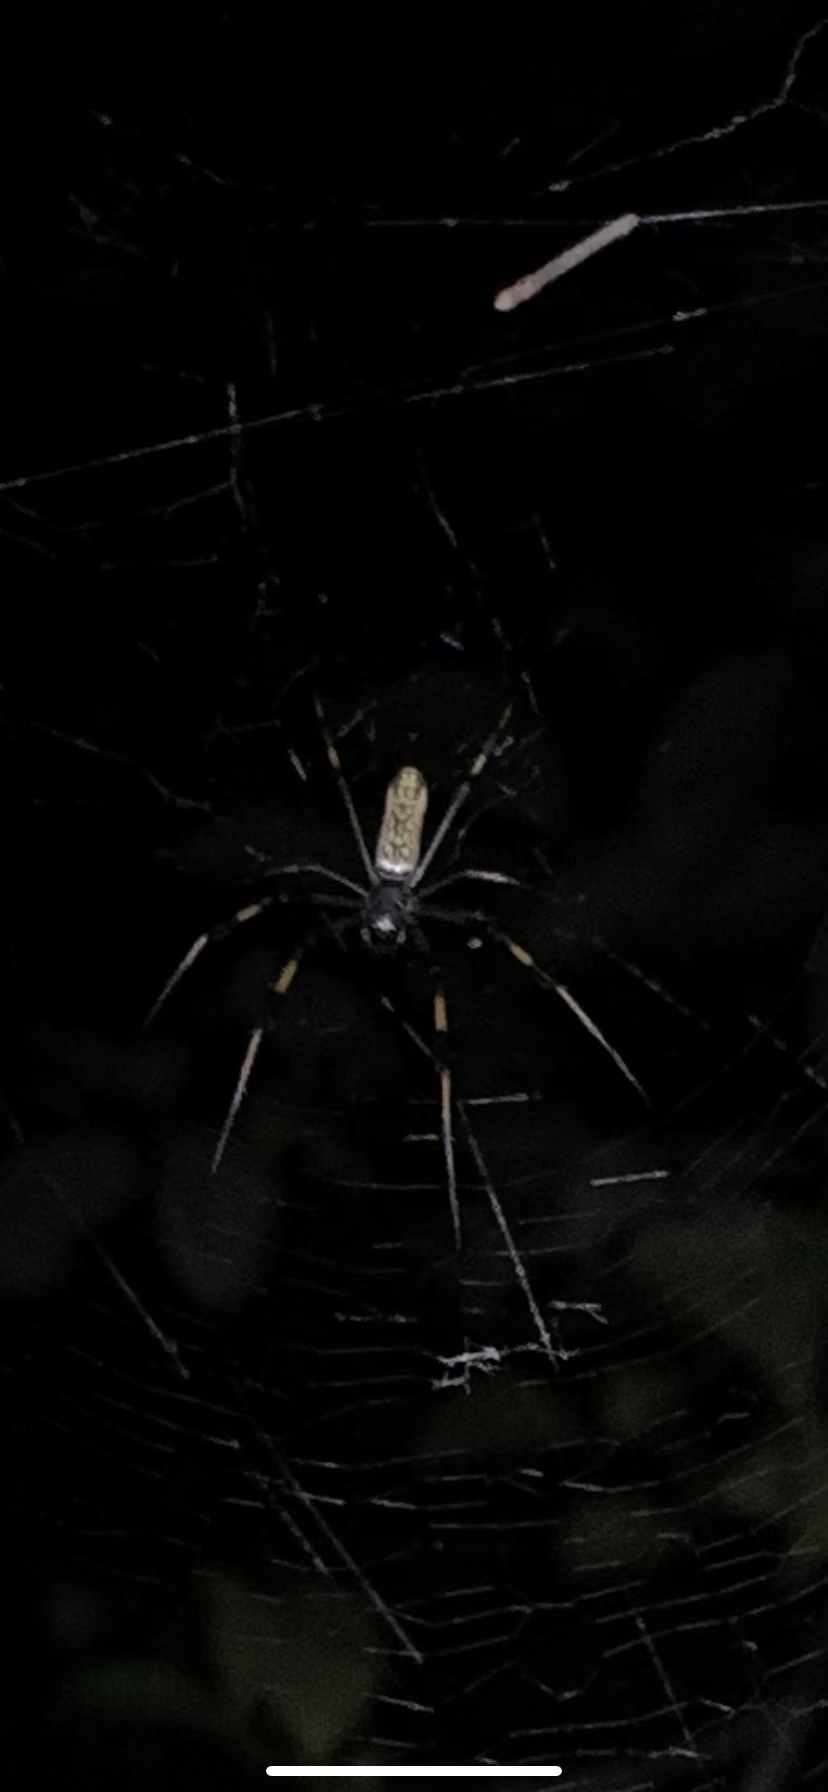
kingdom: Animalia
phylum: Arthropoda
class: Arachnida
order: Araneae
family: Araneidae
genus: Trichonephila
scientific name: Trichonephila clavipes
